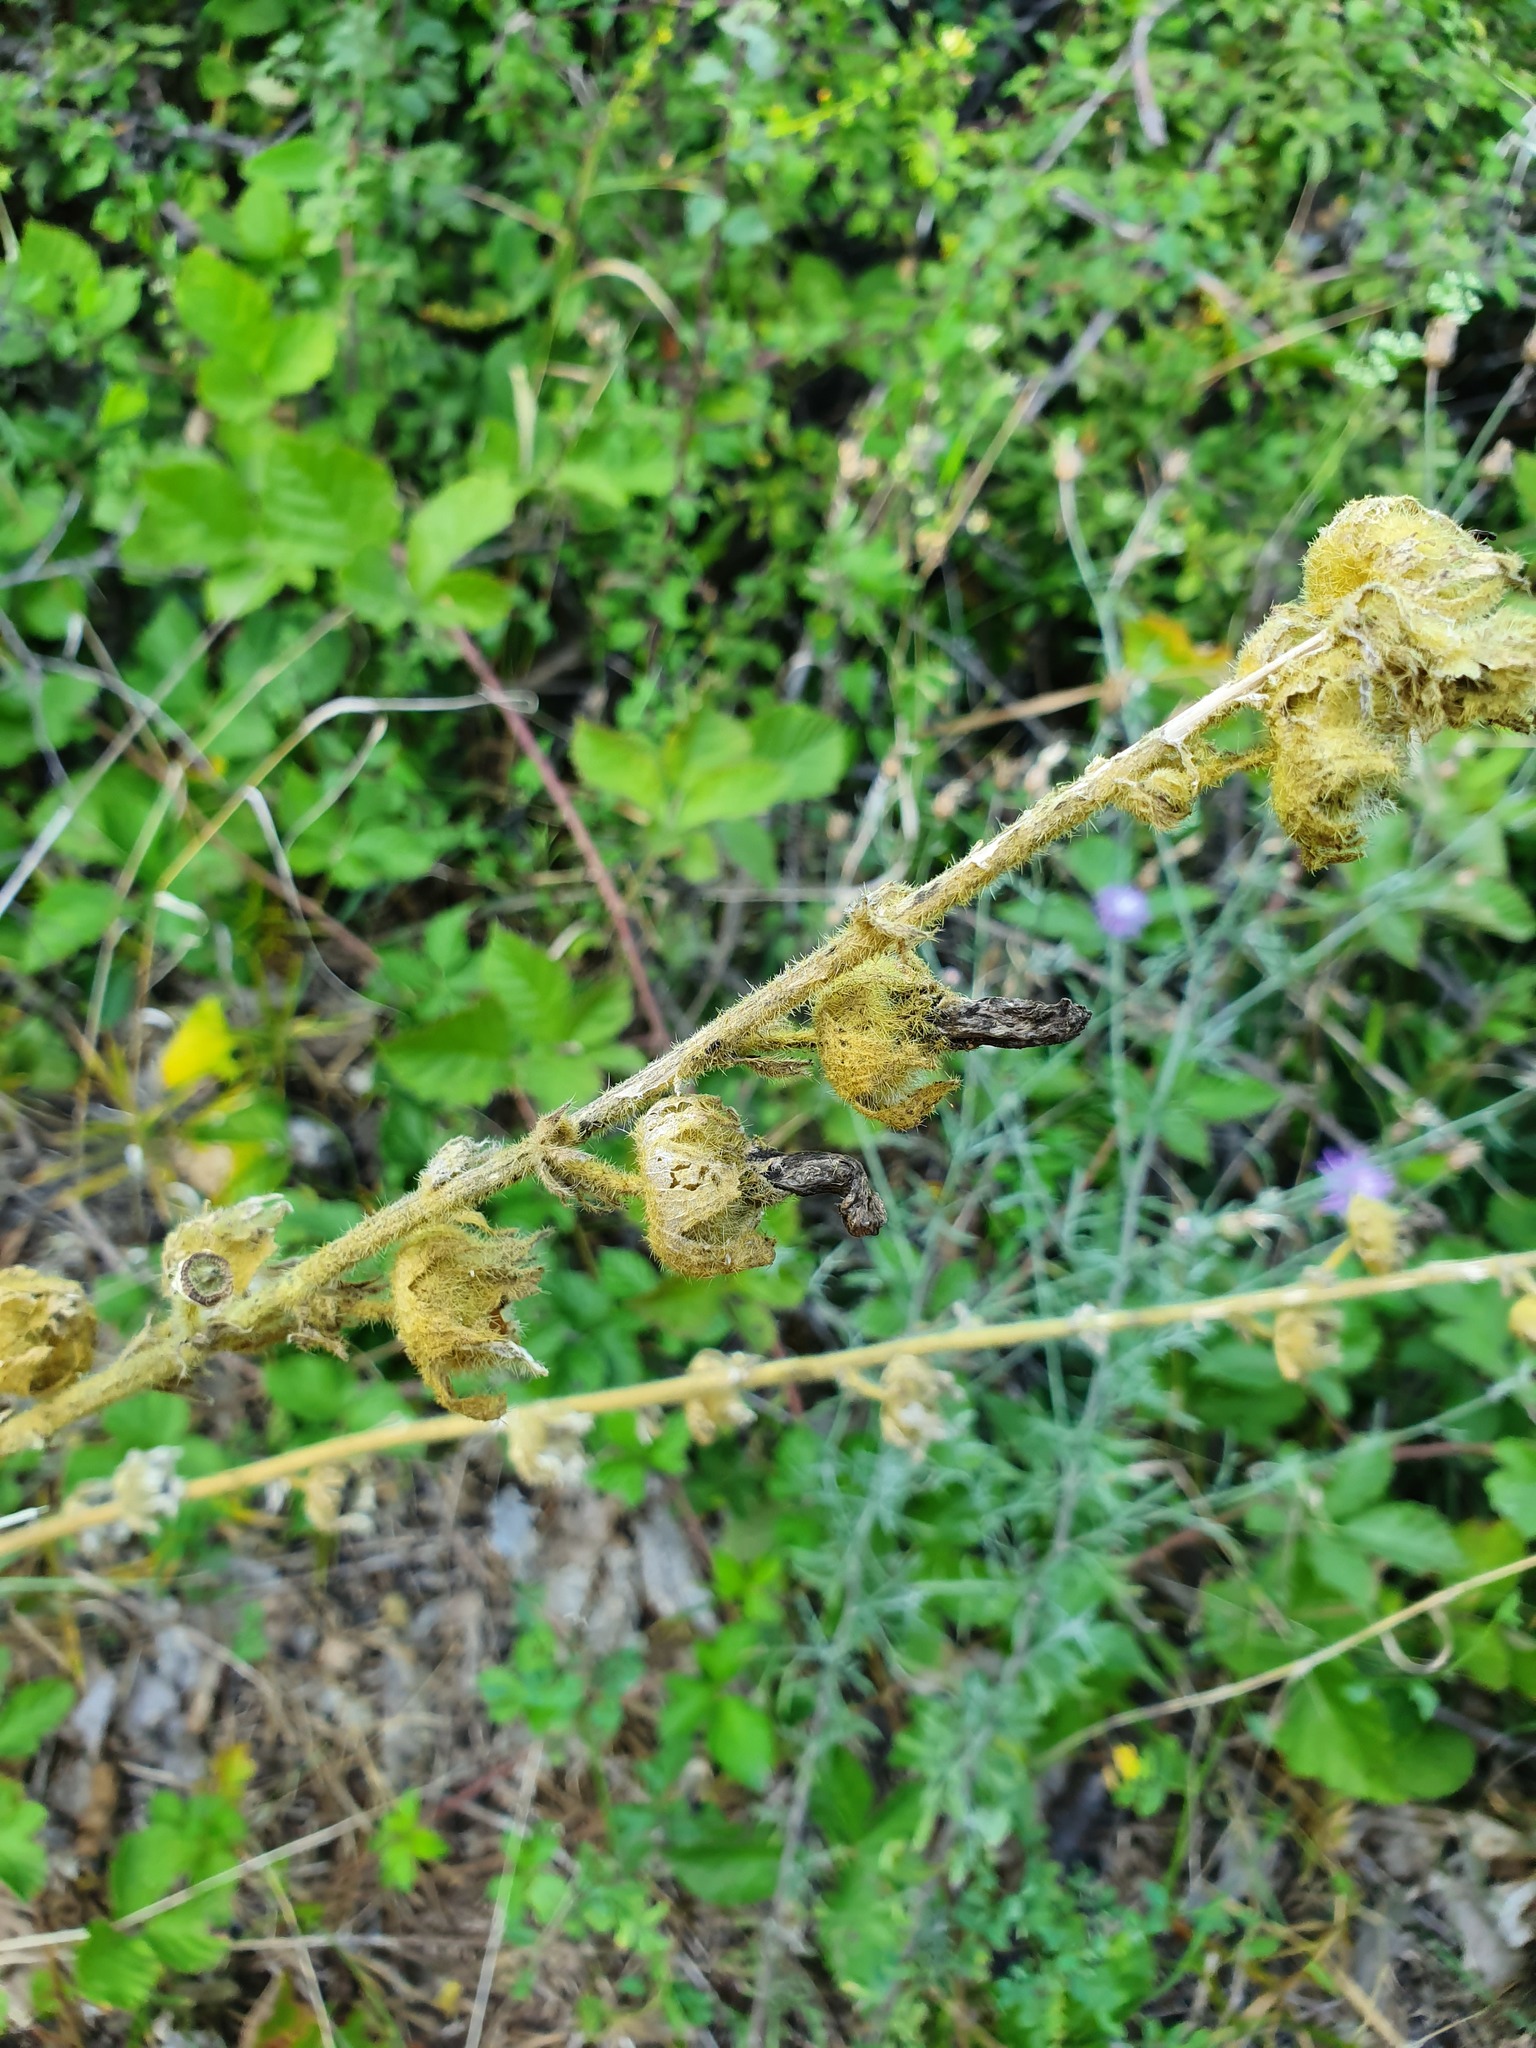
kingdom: Plantae
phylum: Tracheophyta
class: Magnoliopsida
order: Malvales
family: Malvaceae
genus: Alcea
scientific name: Alcea rosea
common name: Hollyhock
